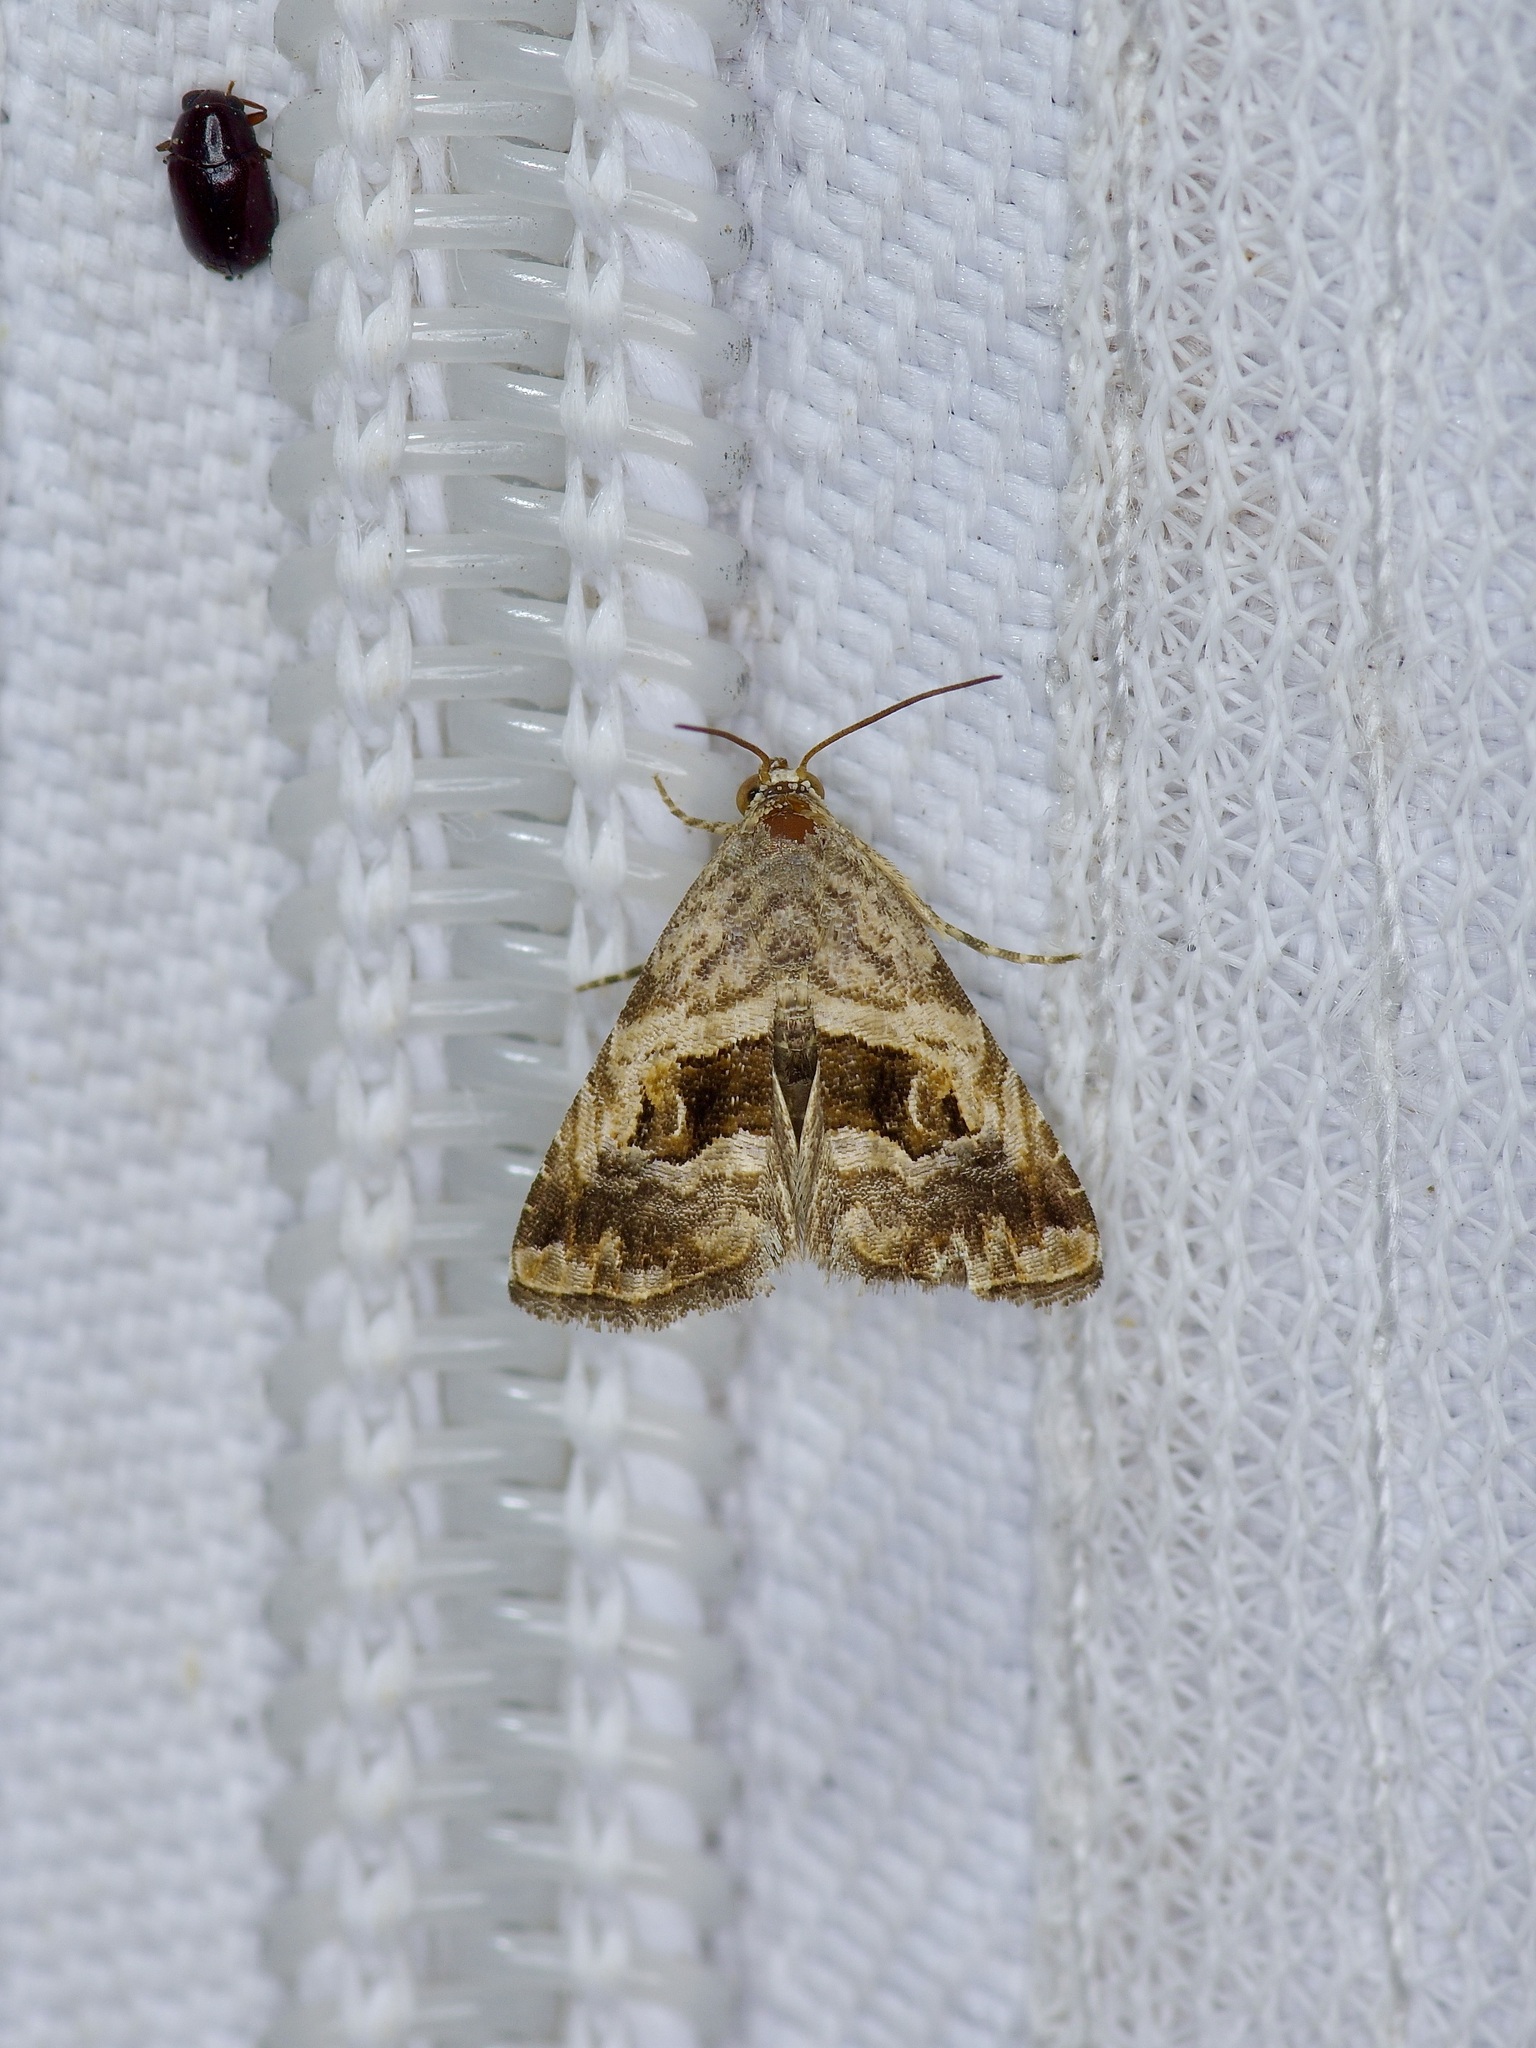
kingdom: Animalia
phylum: Arthropoda
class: Insecta
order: Lepidoptera
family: Noctuidae
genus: Tripudia
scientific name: Tripudia quadrifera
